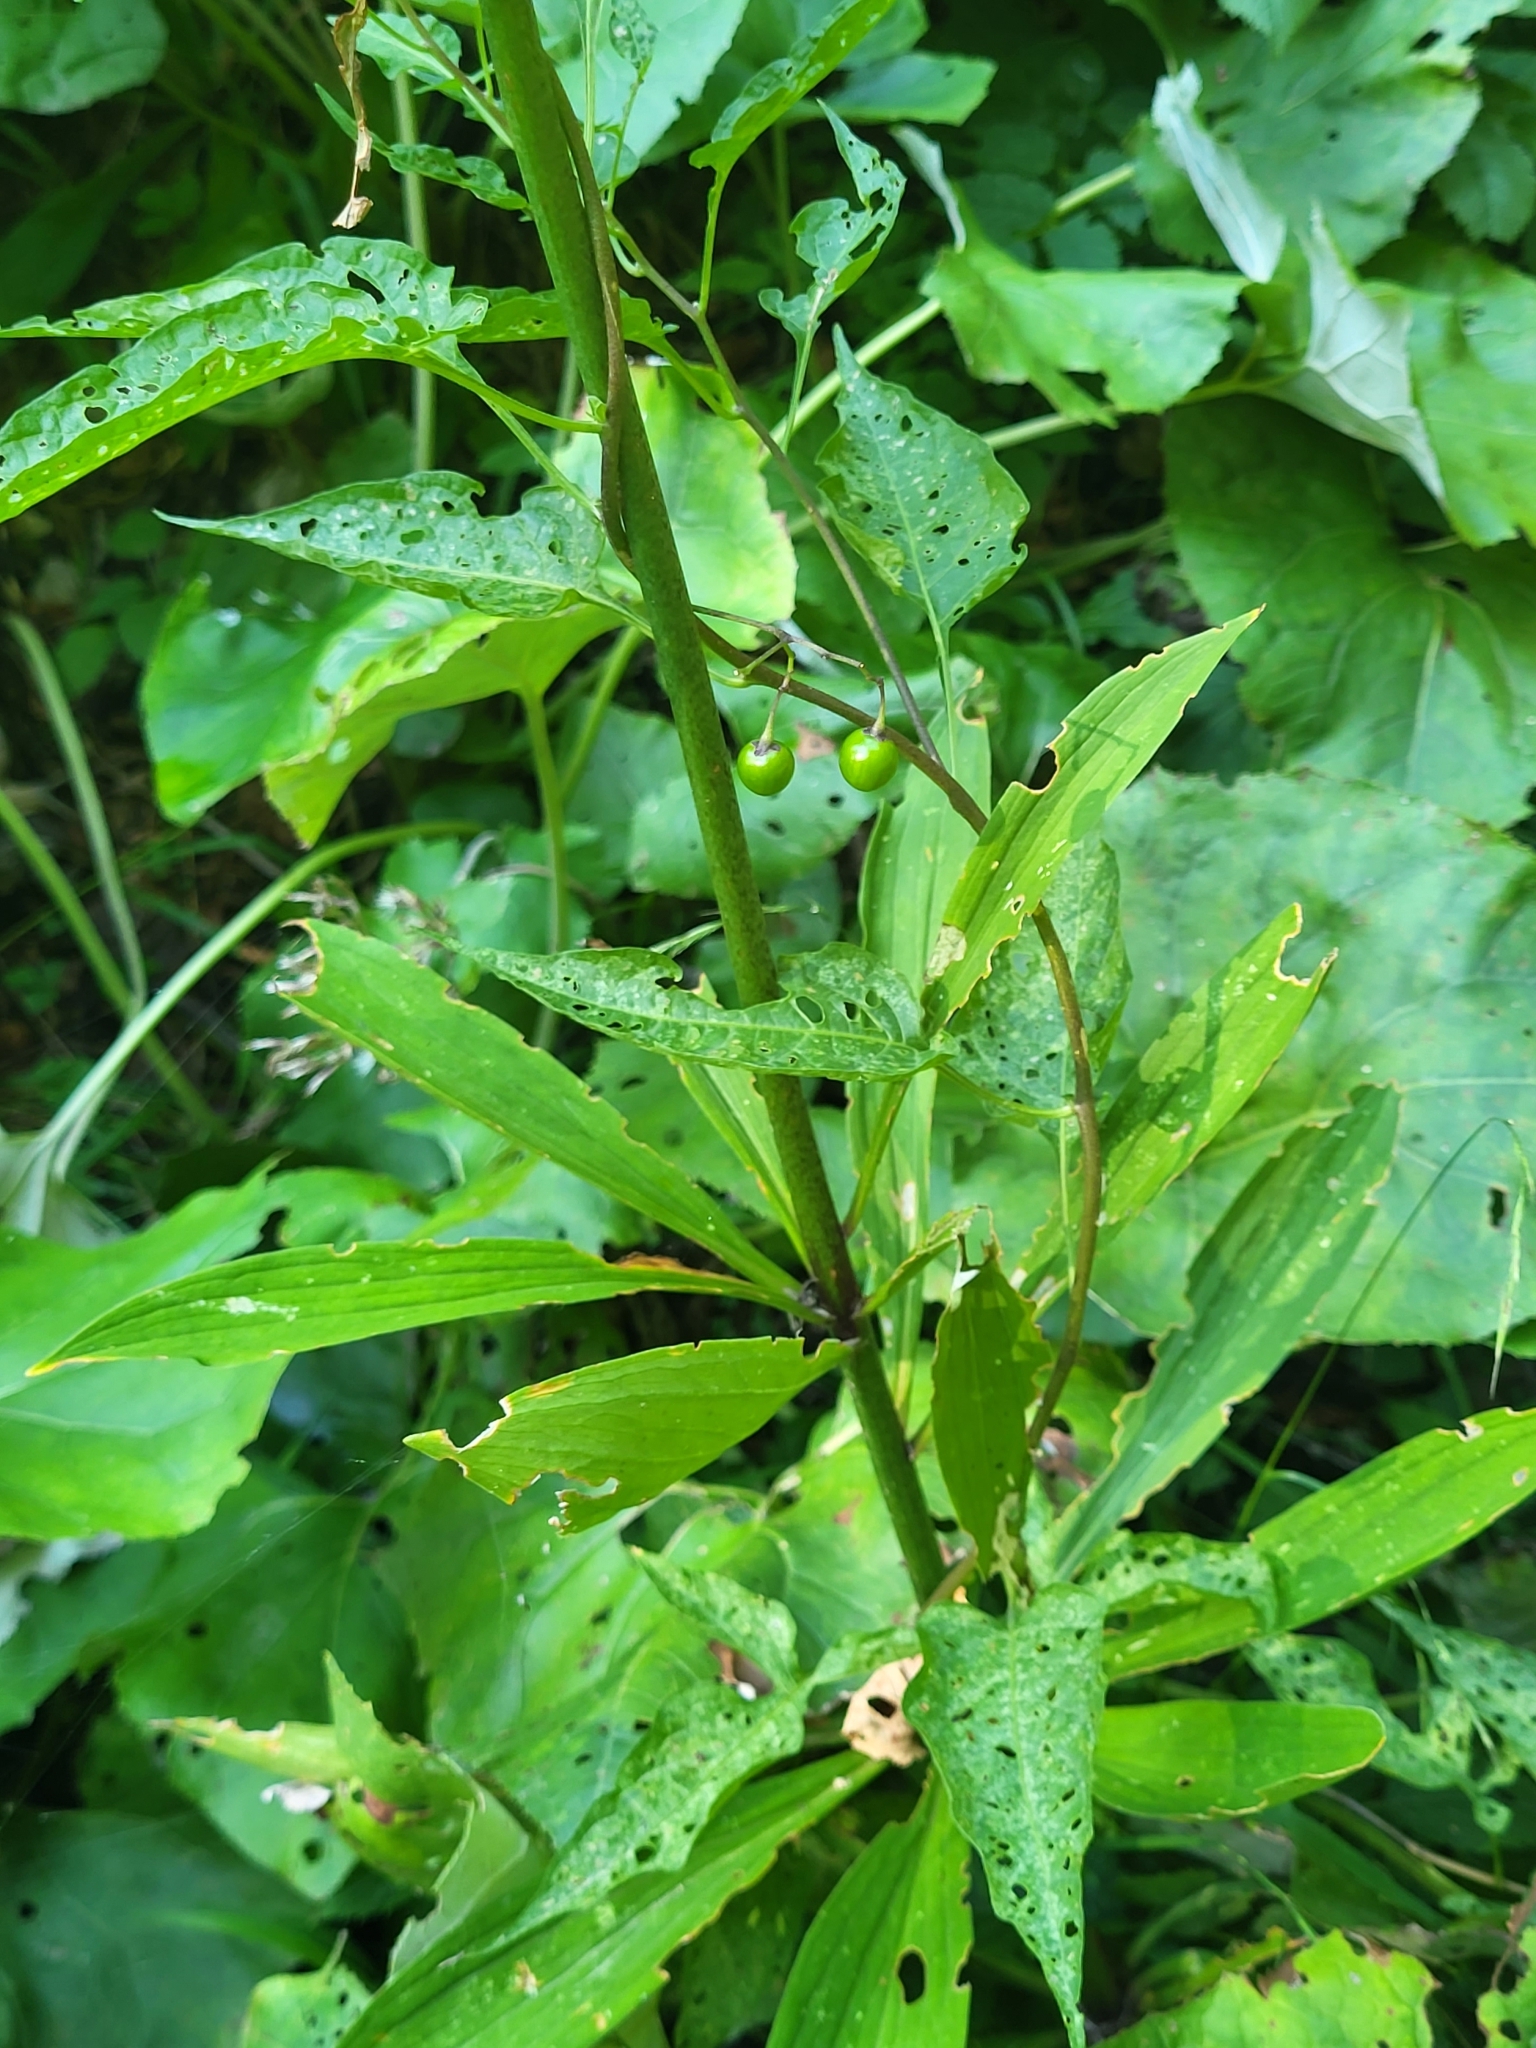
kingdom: Plantae
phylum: Tracheophyta
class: Liliopsida
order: Liliales
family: Liliaceae
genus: Lilium
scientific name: Lilium martagon
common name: Martagon lily
